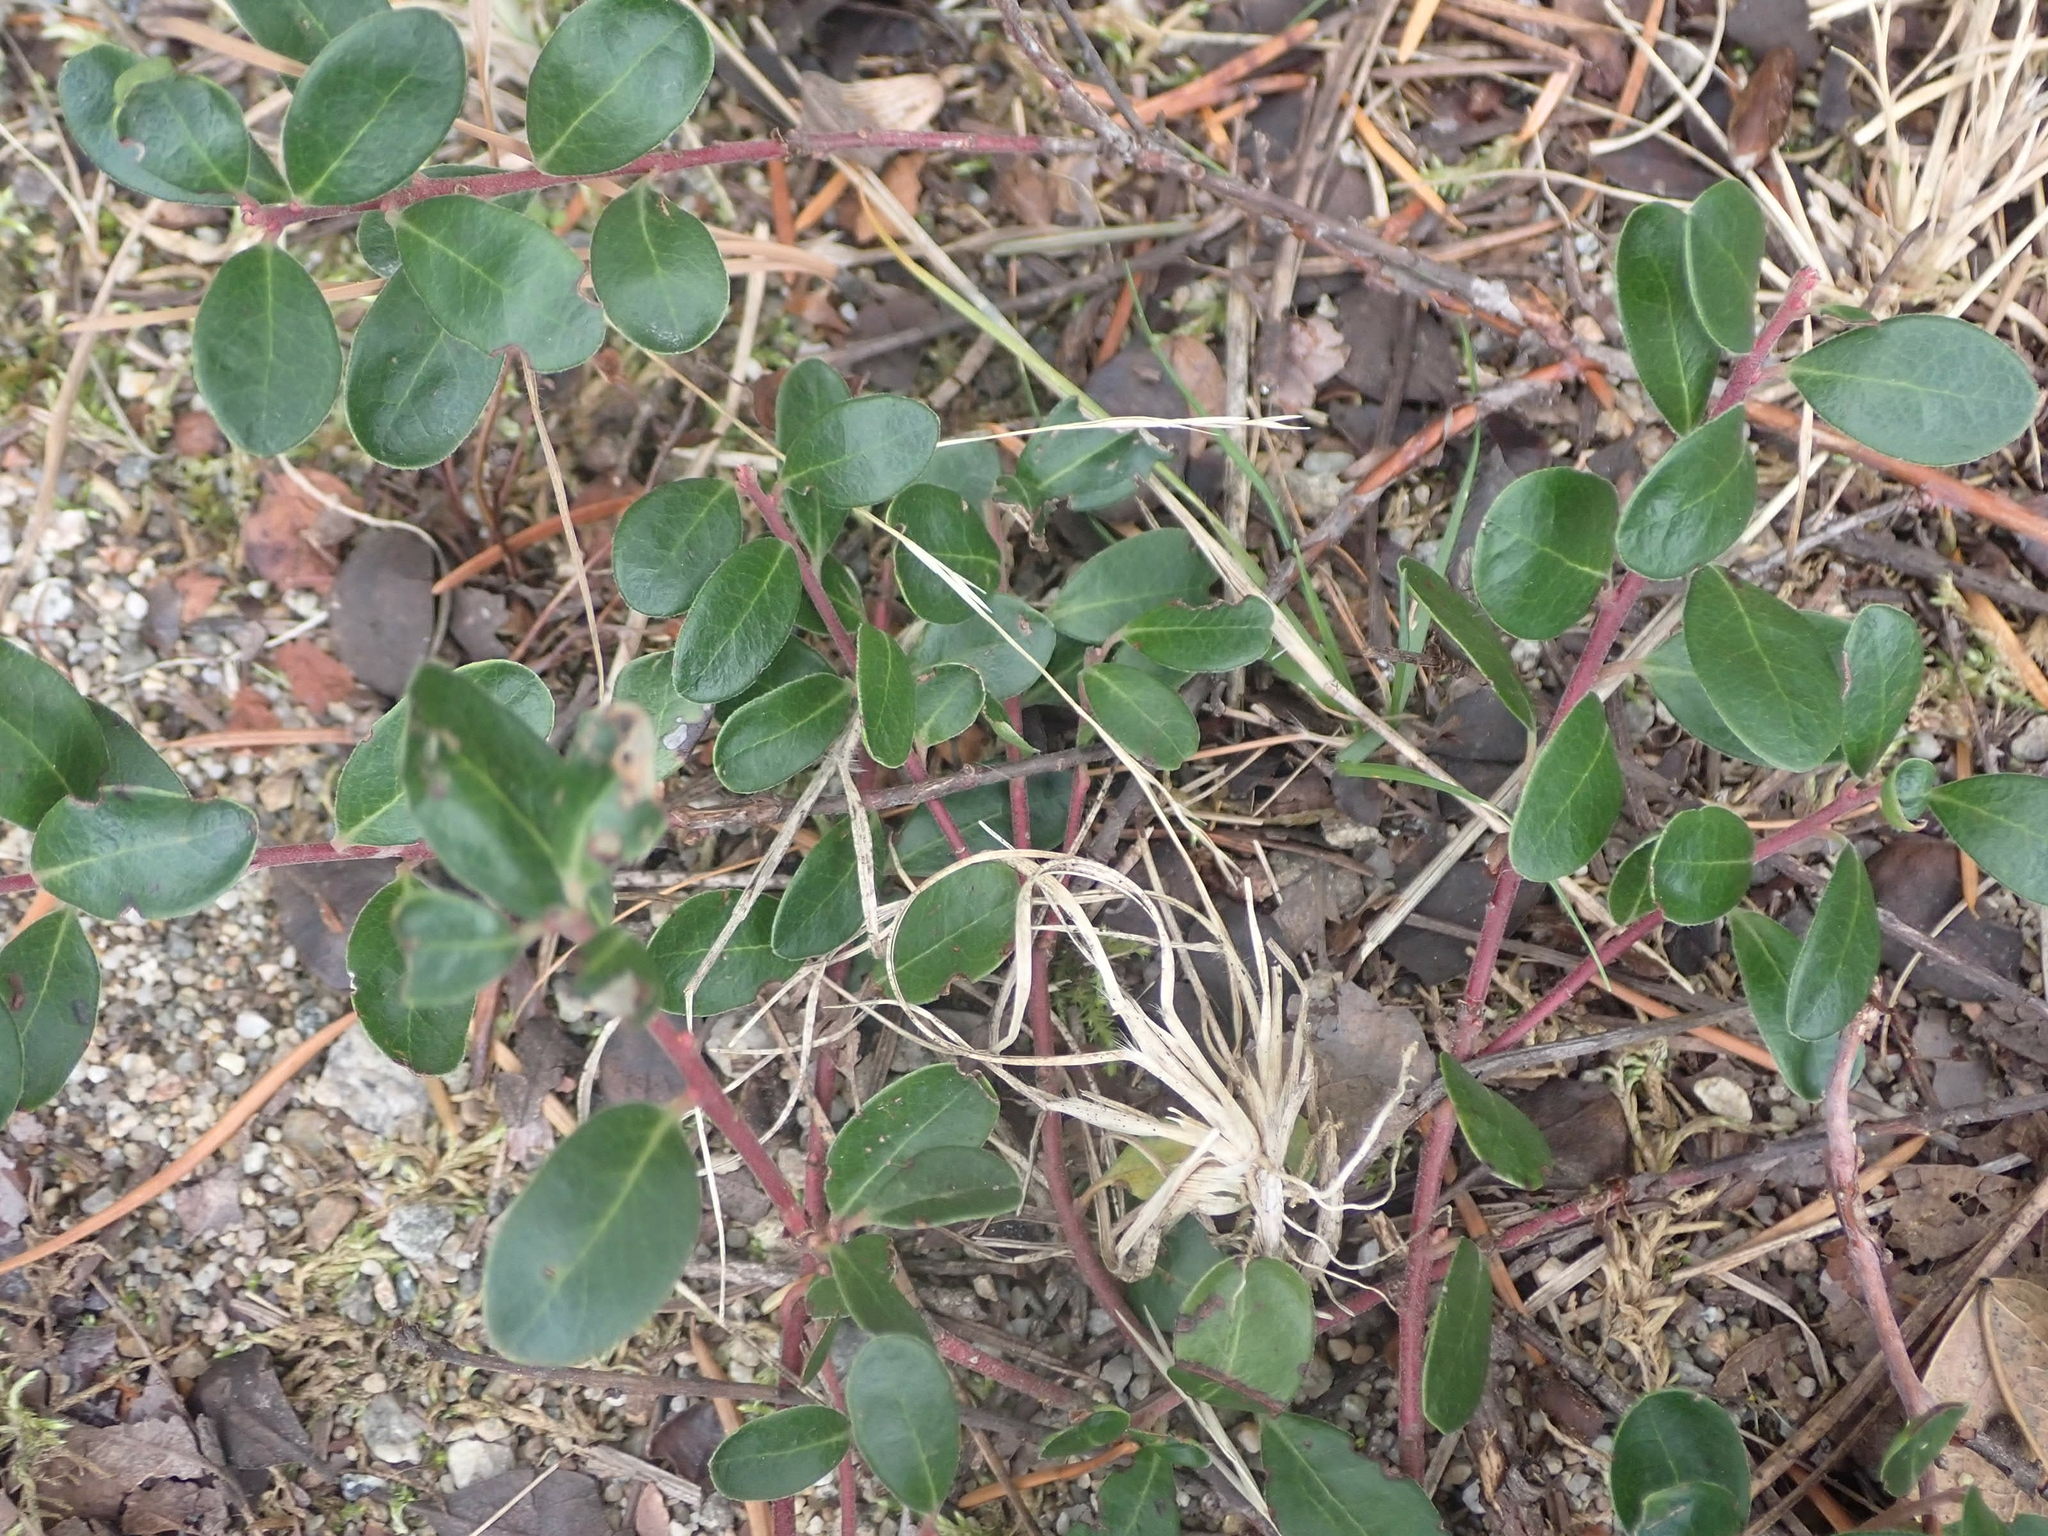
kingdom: Plantae
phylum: Tracheophyta
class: Magnoliopsida
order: Ericales
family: Ericaceae
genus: Arctostaphylos
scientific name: Arctostaphylos uva-ursi
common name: Bearberry
